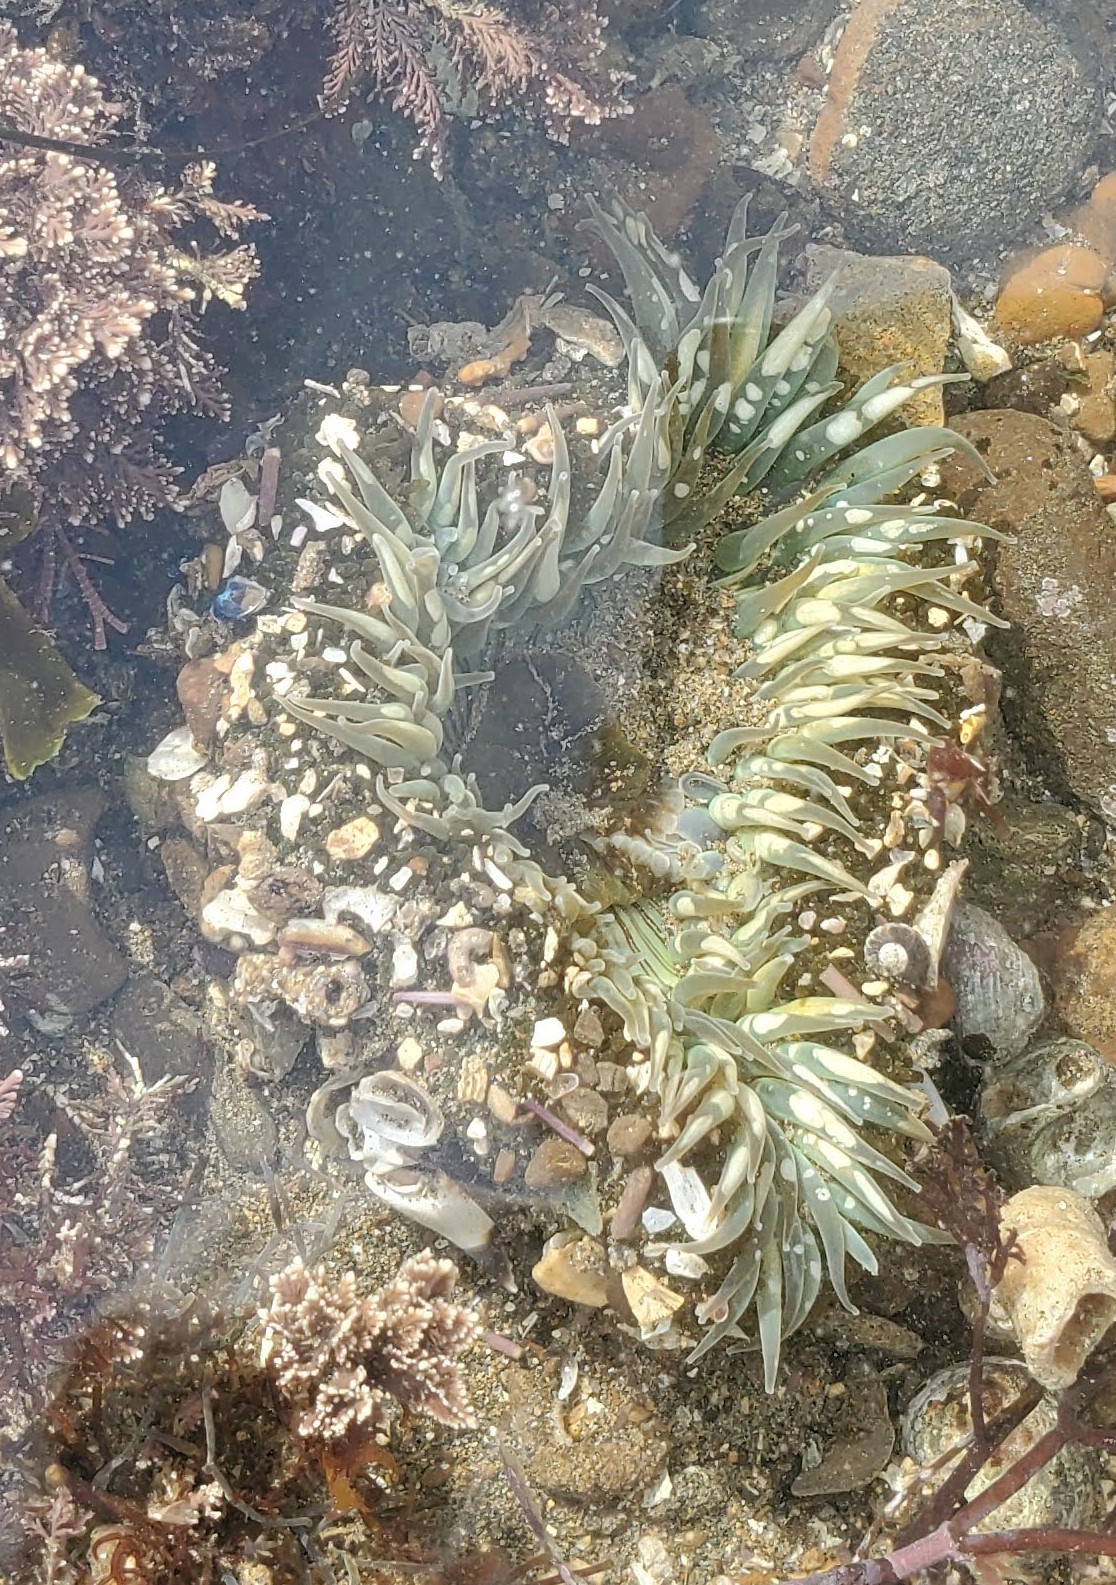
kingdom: Animalia
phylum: Cnidaria
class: Anthozoa
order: Actiniaria
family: Actiniidae
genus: Anthopleura
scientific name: Anthopleura sola
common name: Sun anemone
